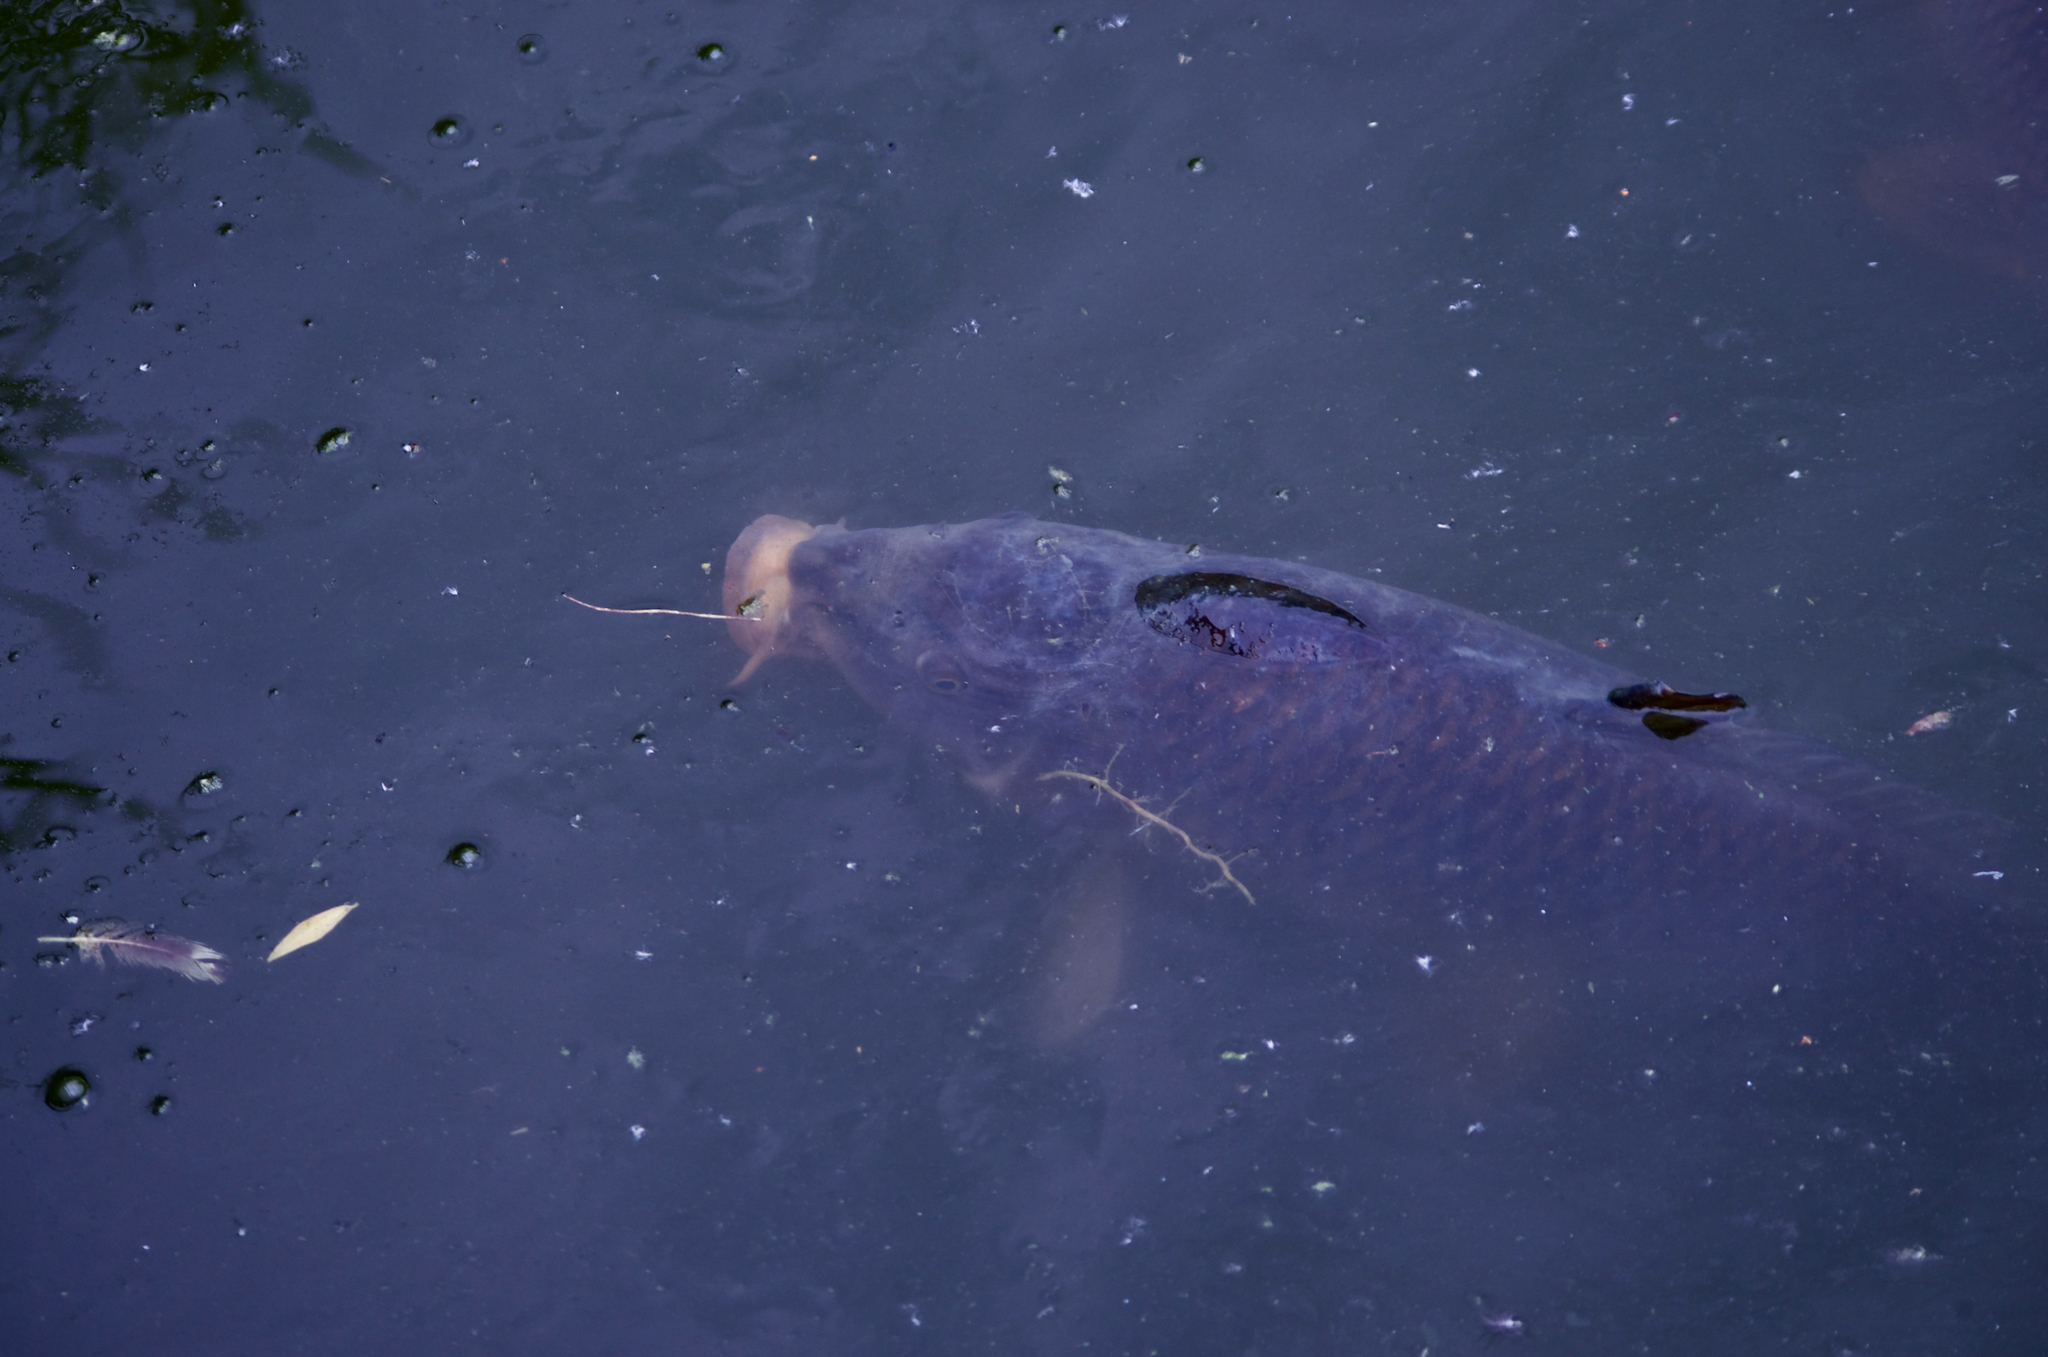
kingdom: Animalia
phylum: Chordata
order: Cypriniformes
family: Cyprinidae
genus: Cyprinus
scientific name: Cyprinus carpio
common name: Common carp
